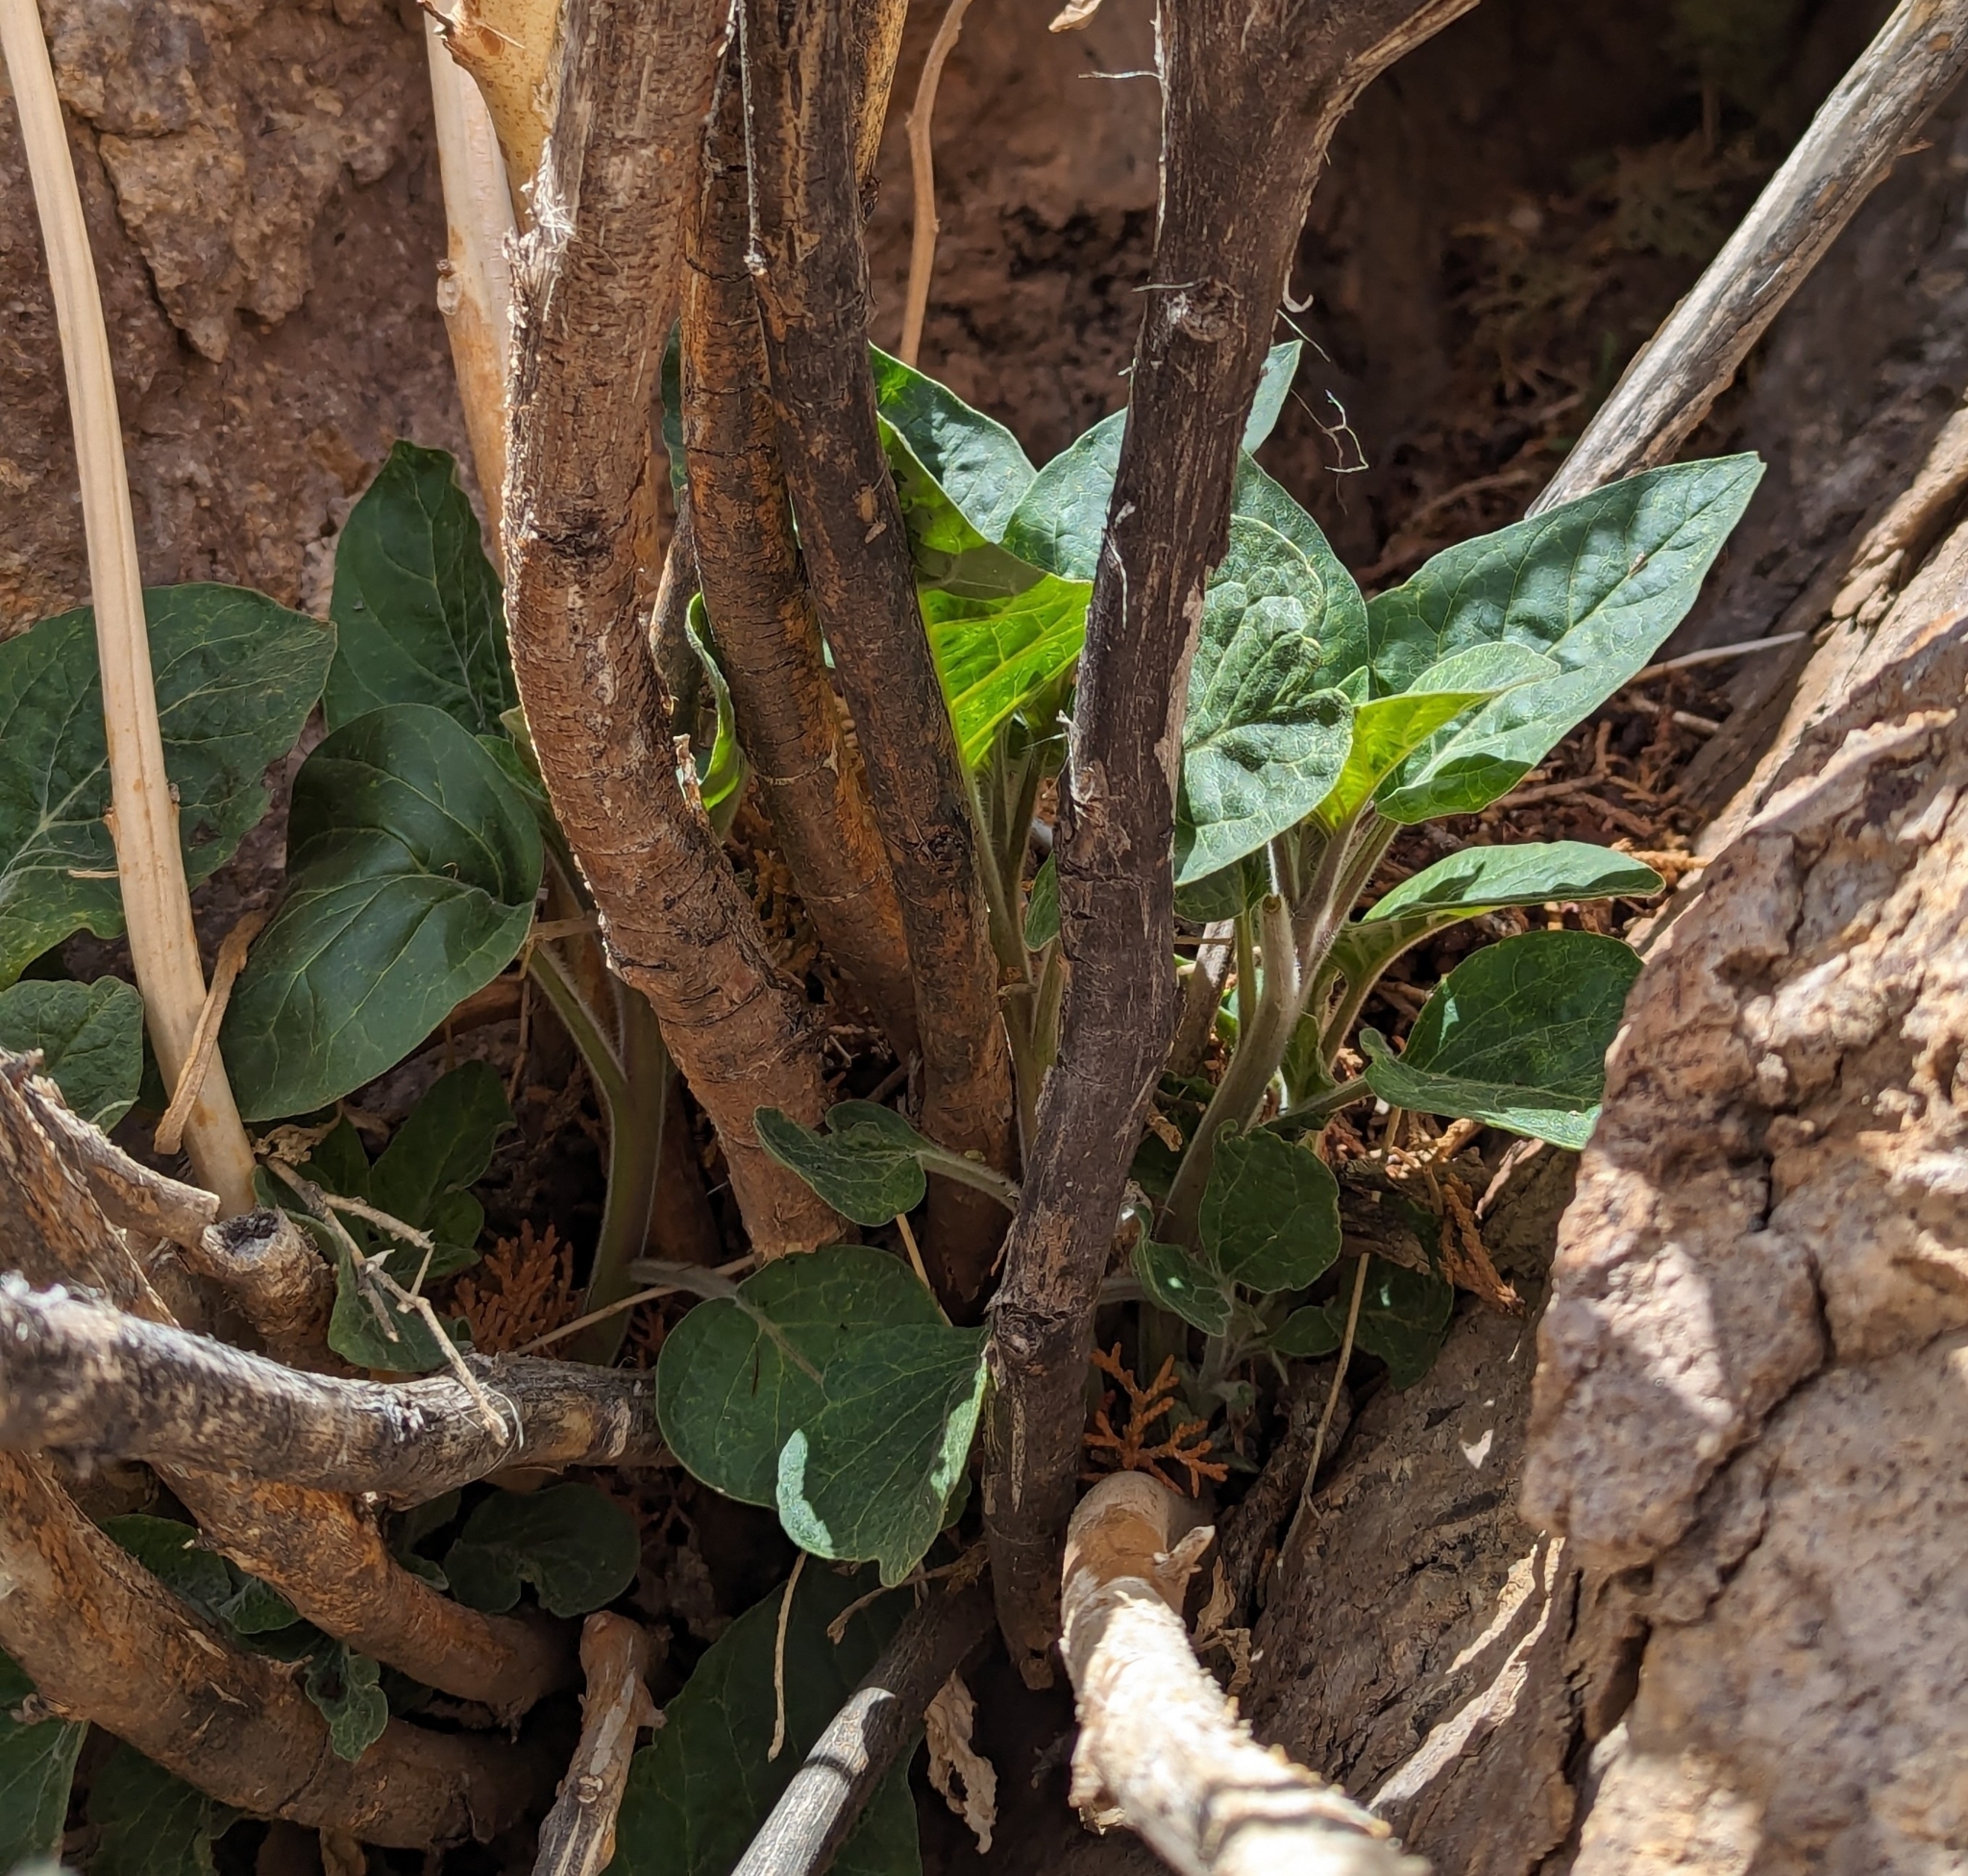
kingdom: Plantae
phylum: Tracheophyta
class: Magnoliopsida
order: Solanales
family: Solanaceae
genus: Datura
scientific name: Datura wrightii
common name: Sacred thorn-apple
